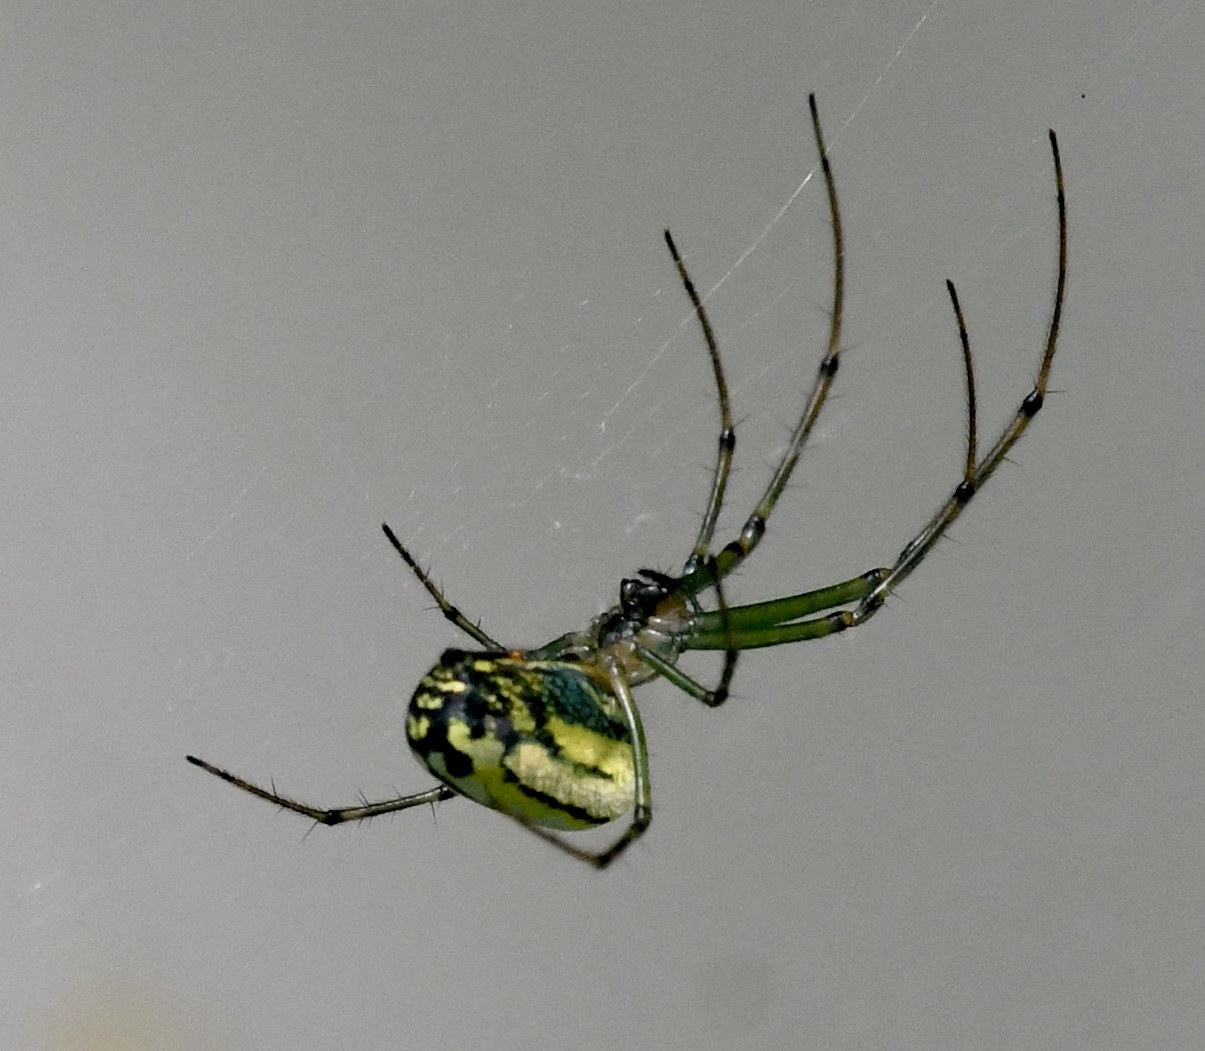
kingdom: Animalia
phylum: Arthropoda
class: Arachnida
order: Araneae
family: Tetragnathidae
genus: Leucauge
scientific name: Leucauge venusta
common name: Longjawed orb weavers
